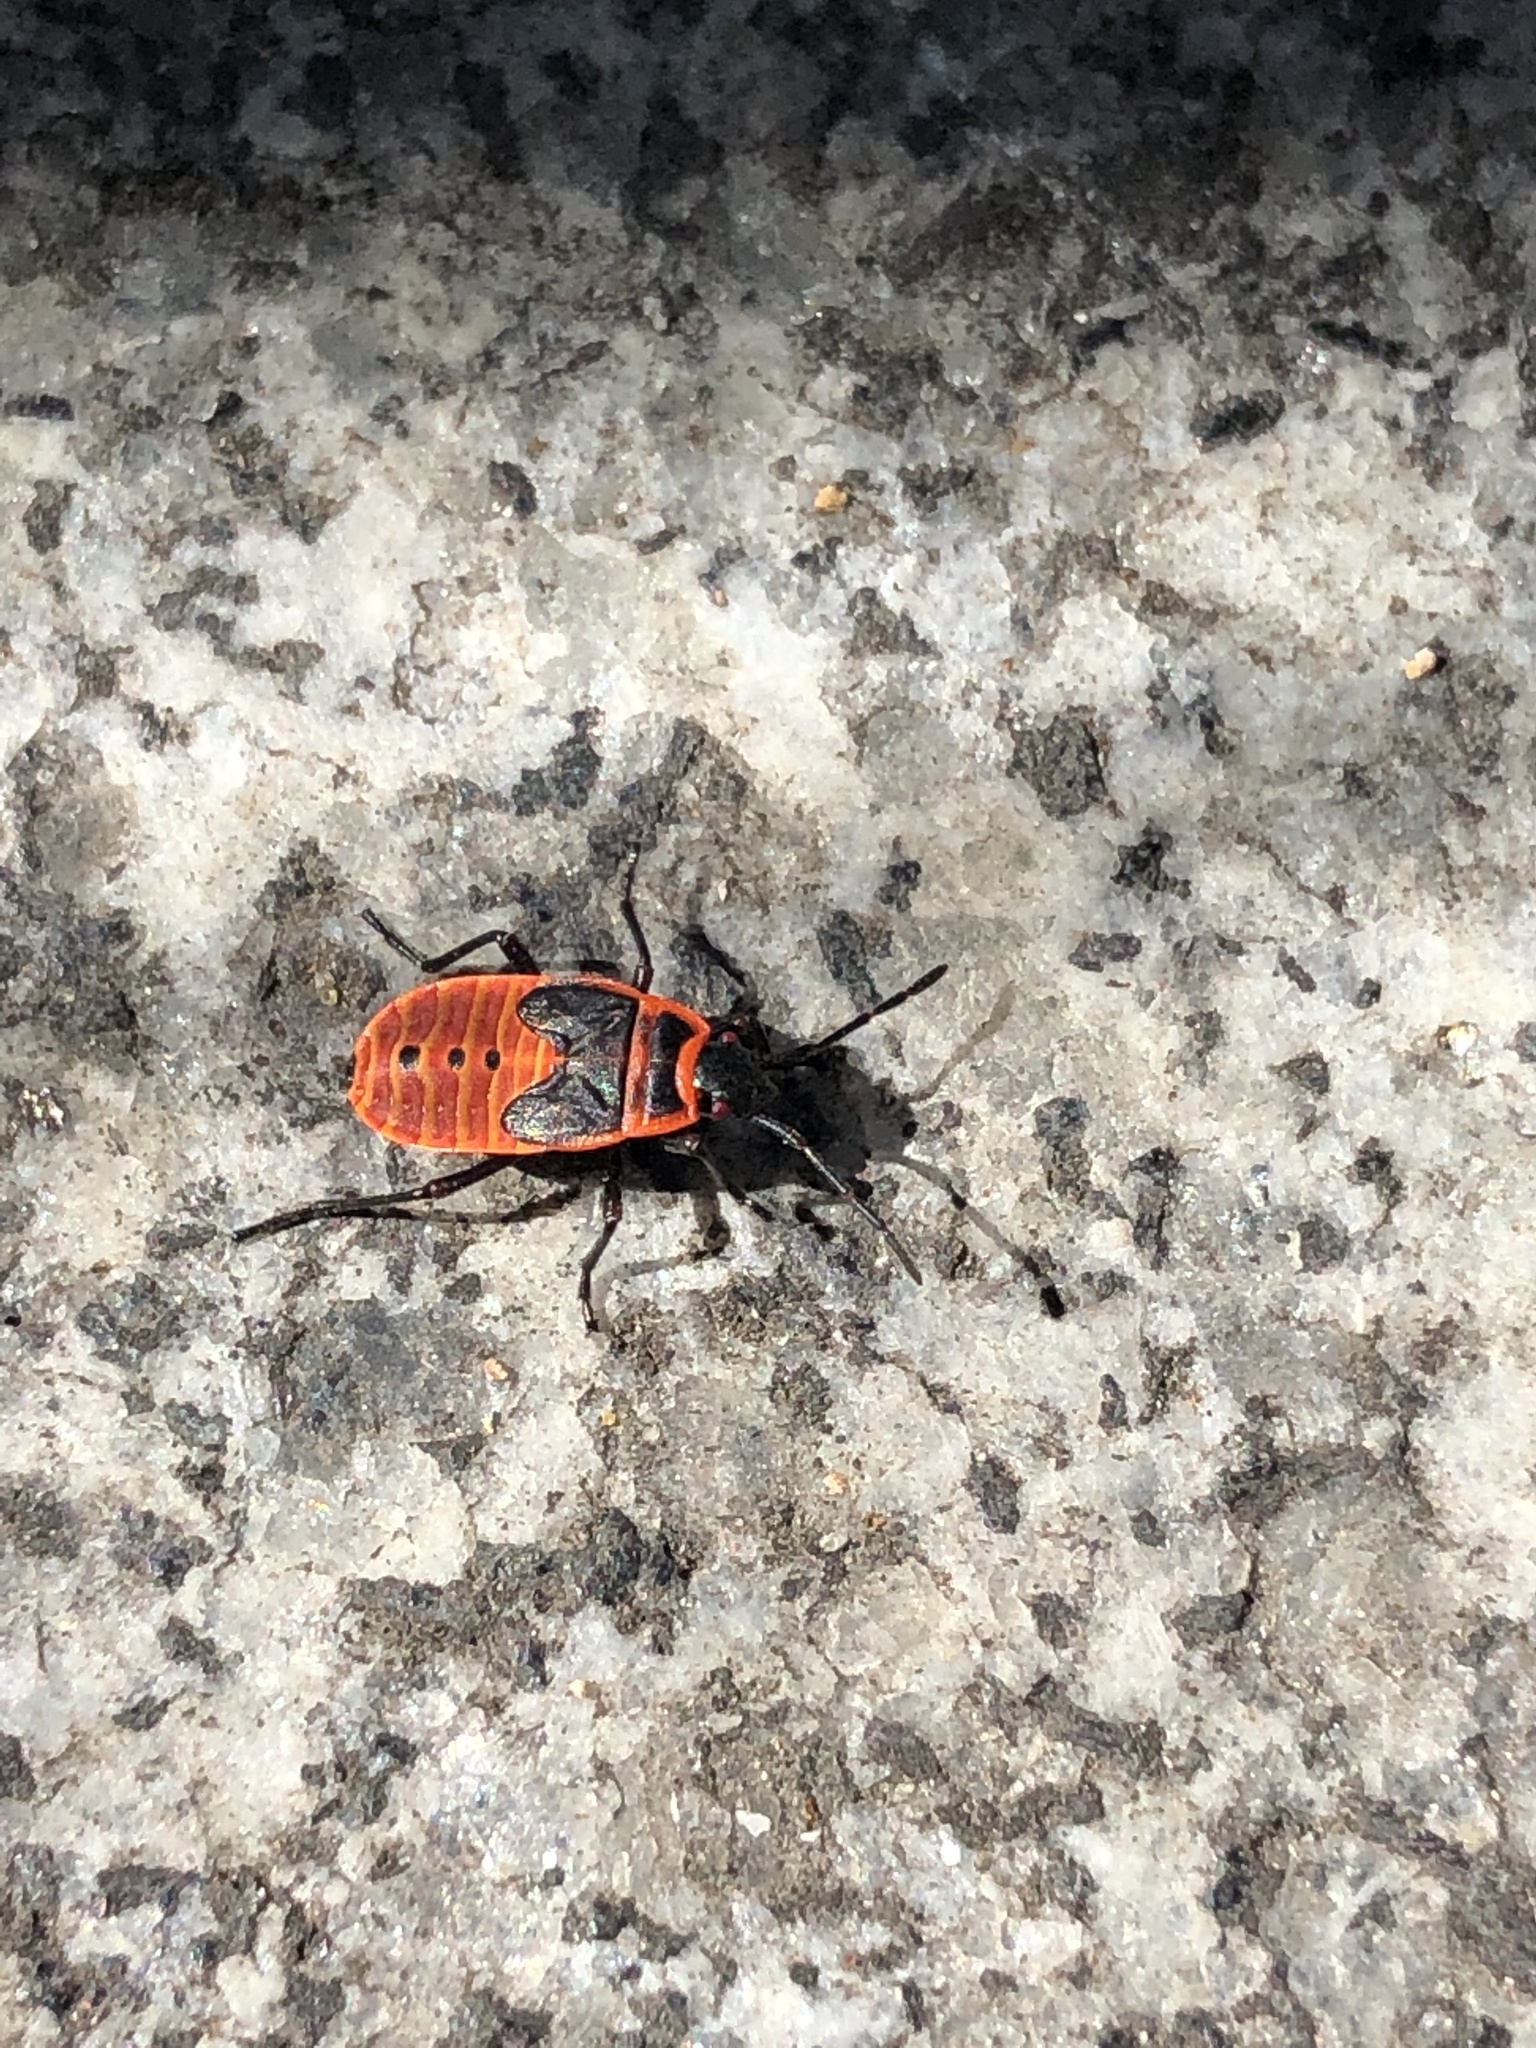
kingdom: Animalia
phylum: Arthropoda
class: Insecta
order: Hemiptera
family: Pyrrhocoridae
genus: Pyrrhocoris
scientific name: Pyrrhocoris apterus
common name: Firebug
